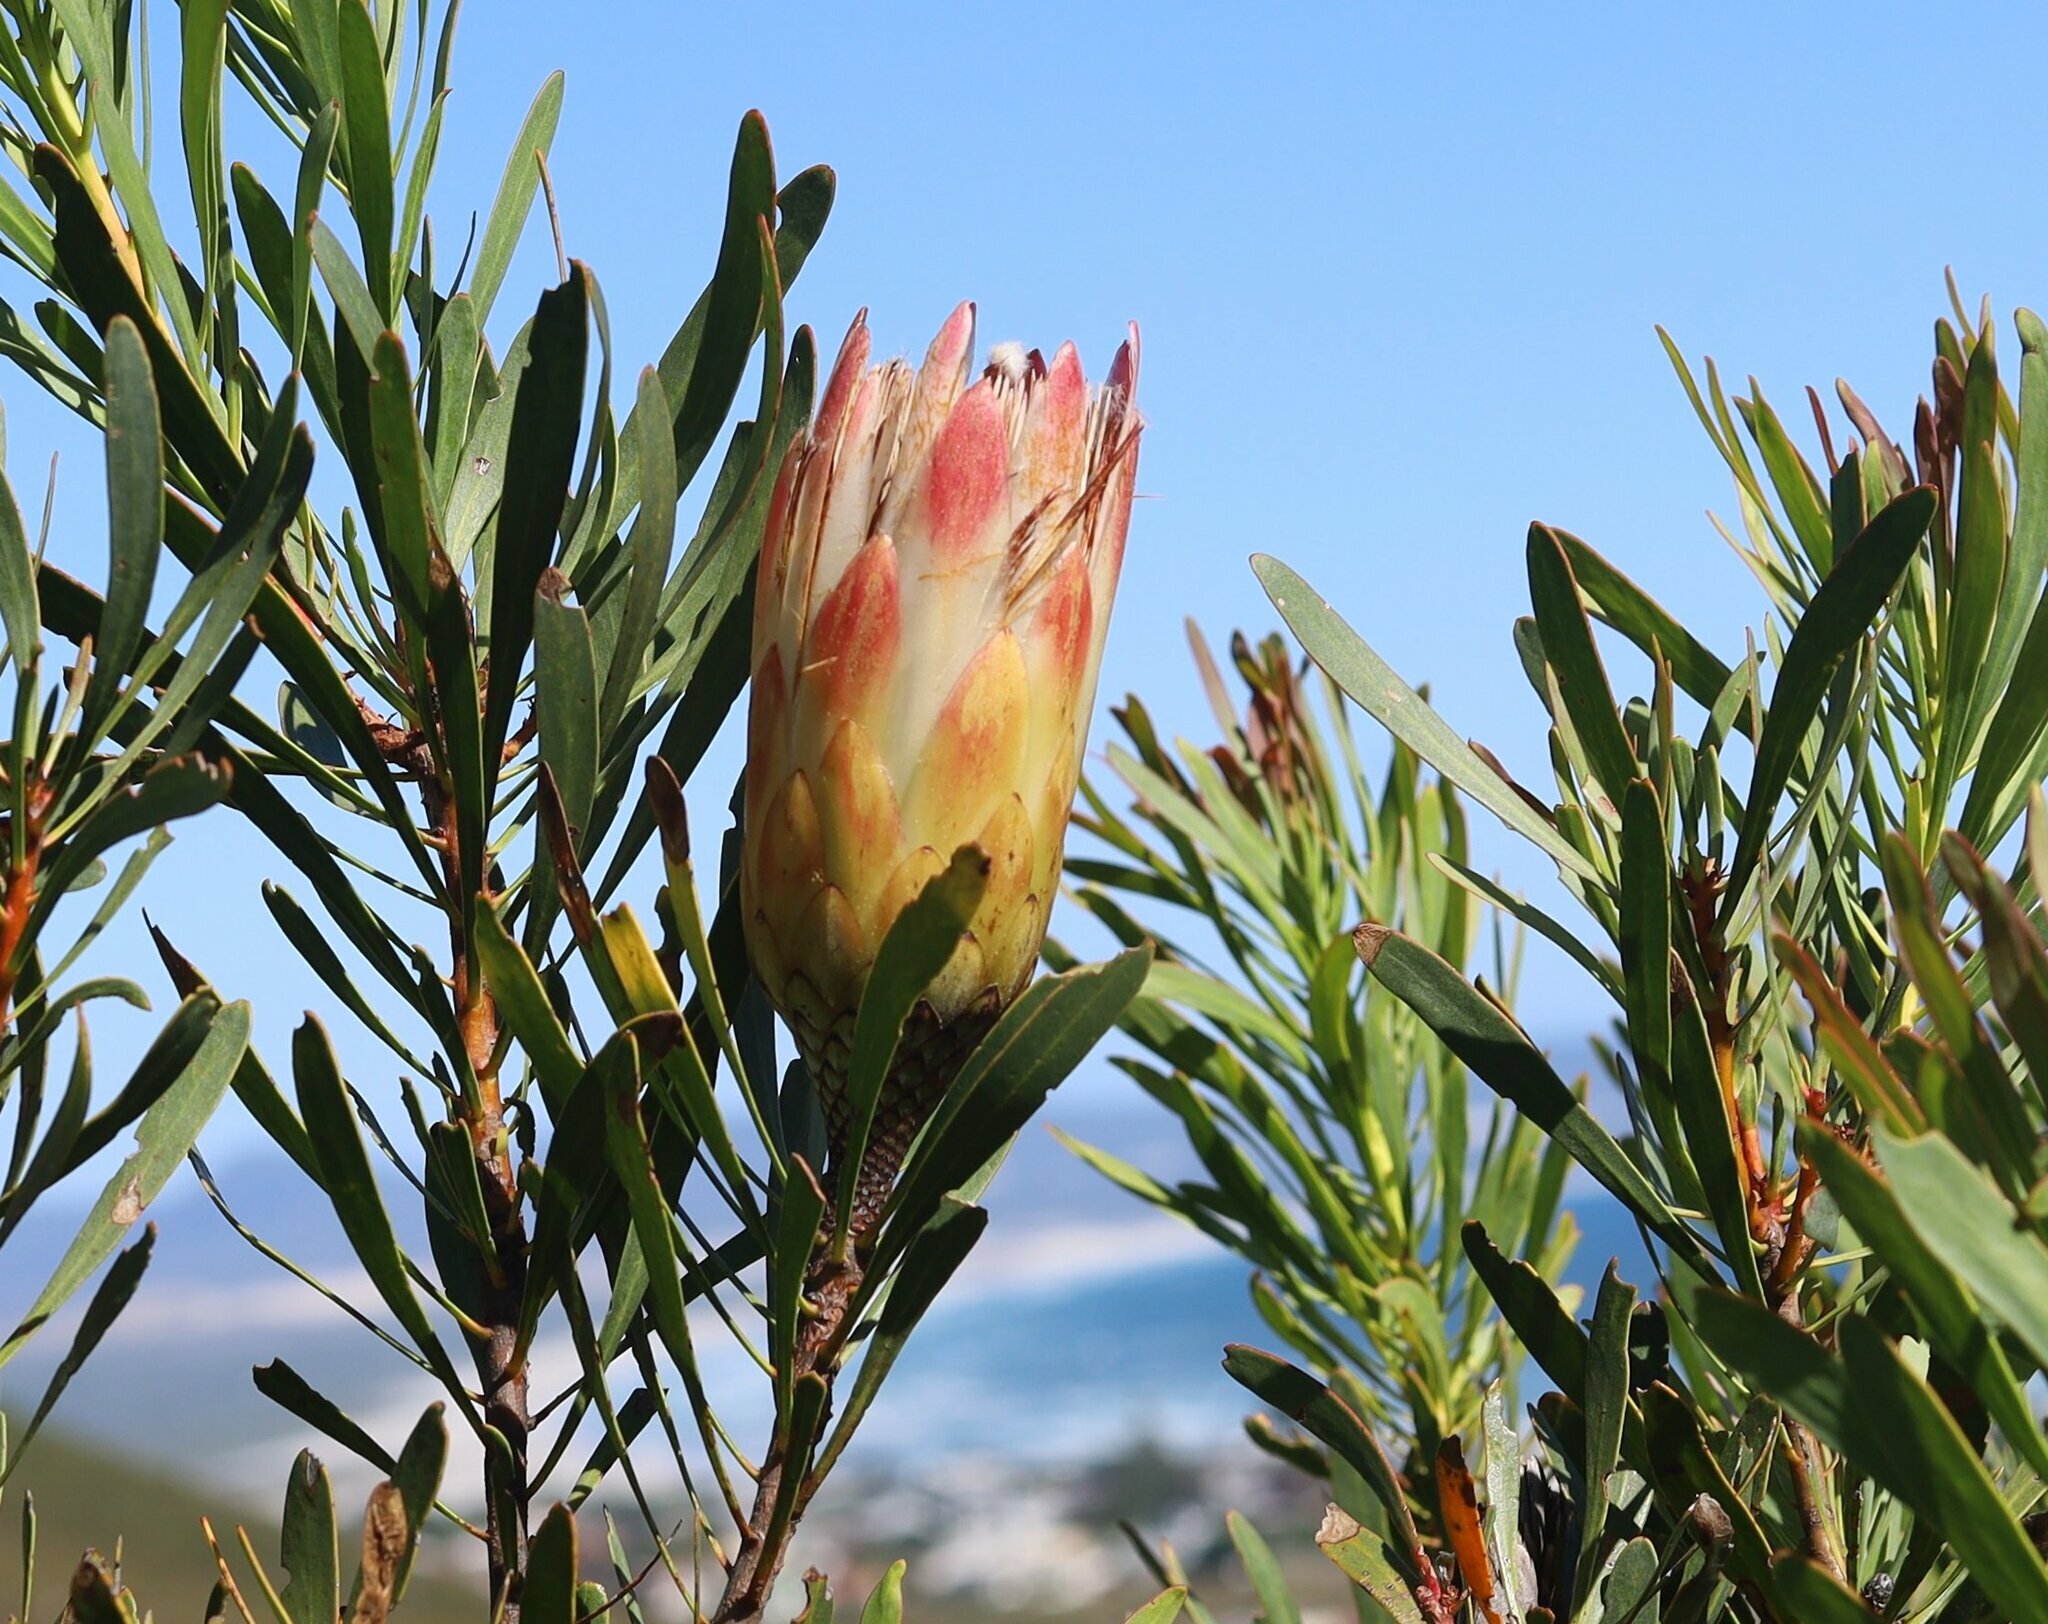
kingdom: Plantae
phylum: Tracheophyta
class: Magnoliopsida
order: Proteales
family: Proteaceae
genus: Protea
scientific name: Protea repens
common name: Sugarbush
